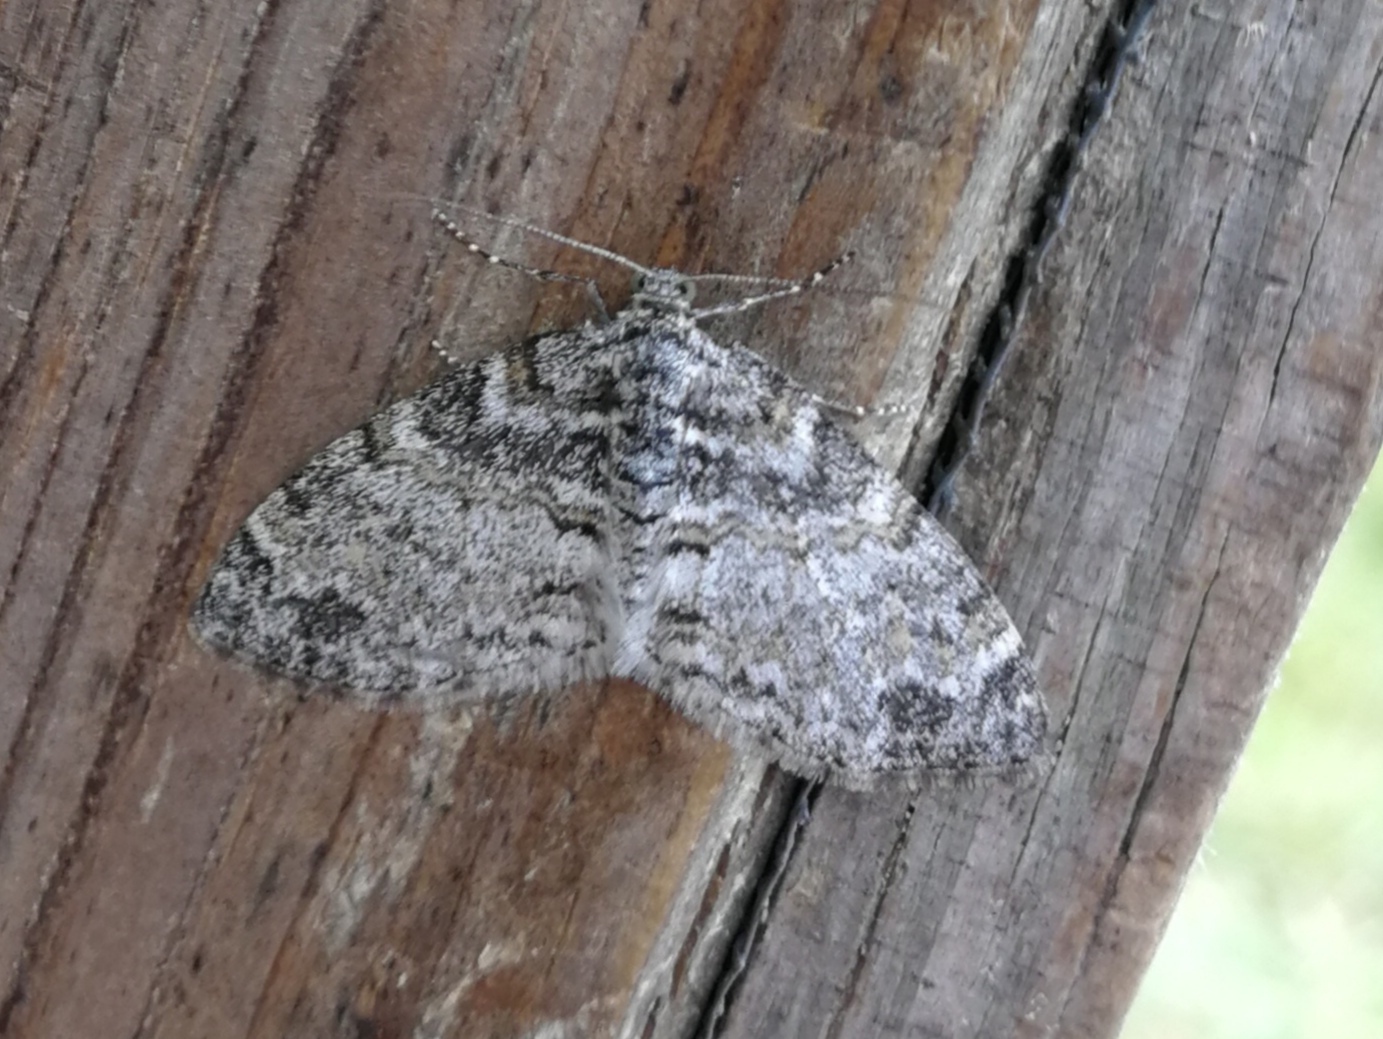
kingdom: Animalia
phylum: Arthropoda
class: Insecta
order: Lepidoptera
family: Geometridae
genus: Lobophora
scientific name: Lobophora halterata
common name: Seraphim
